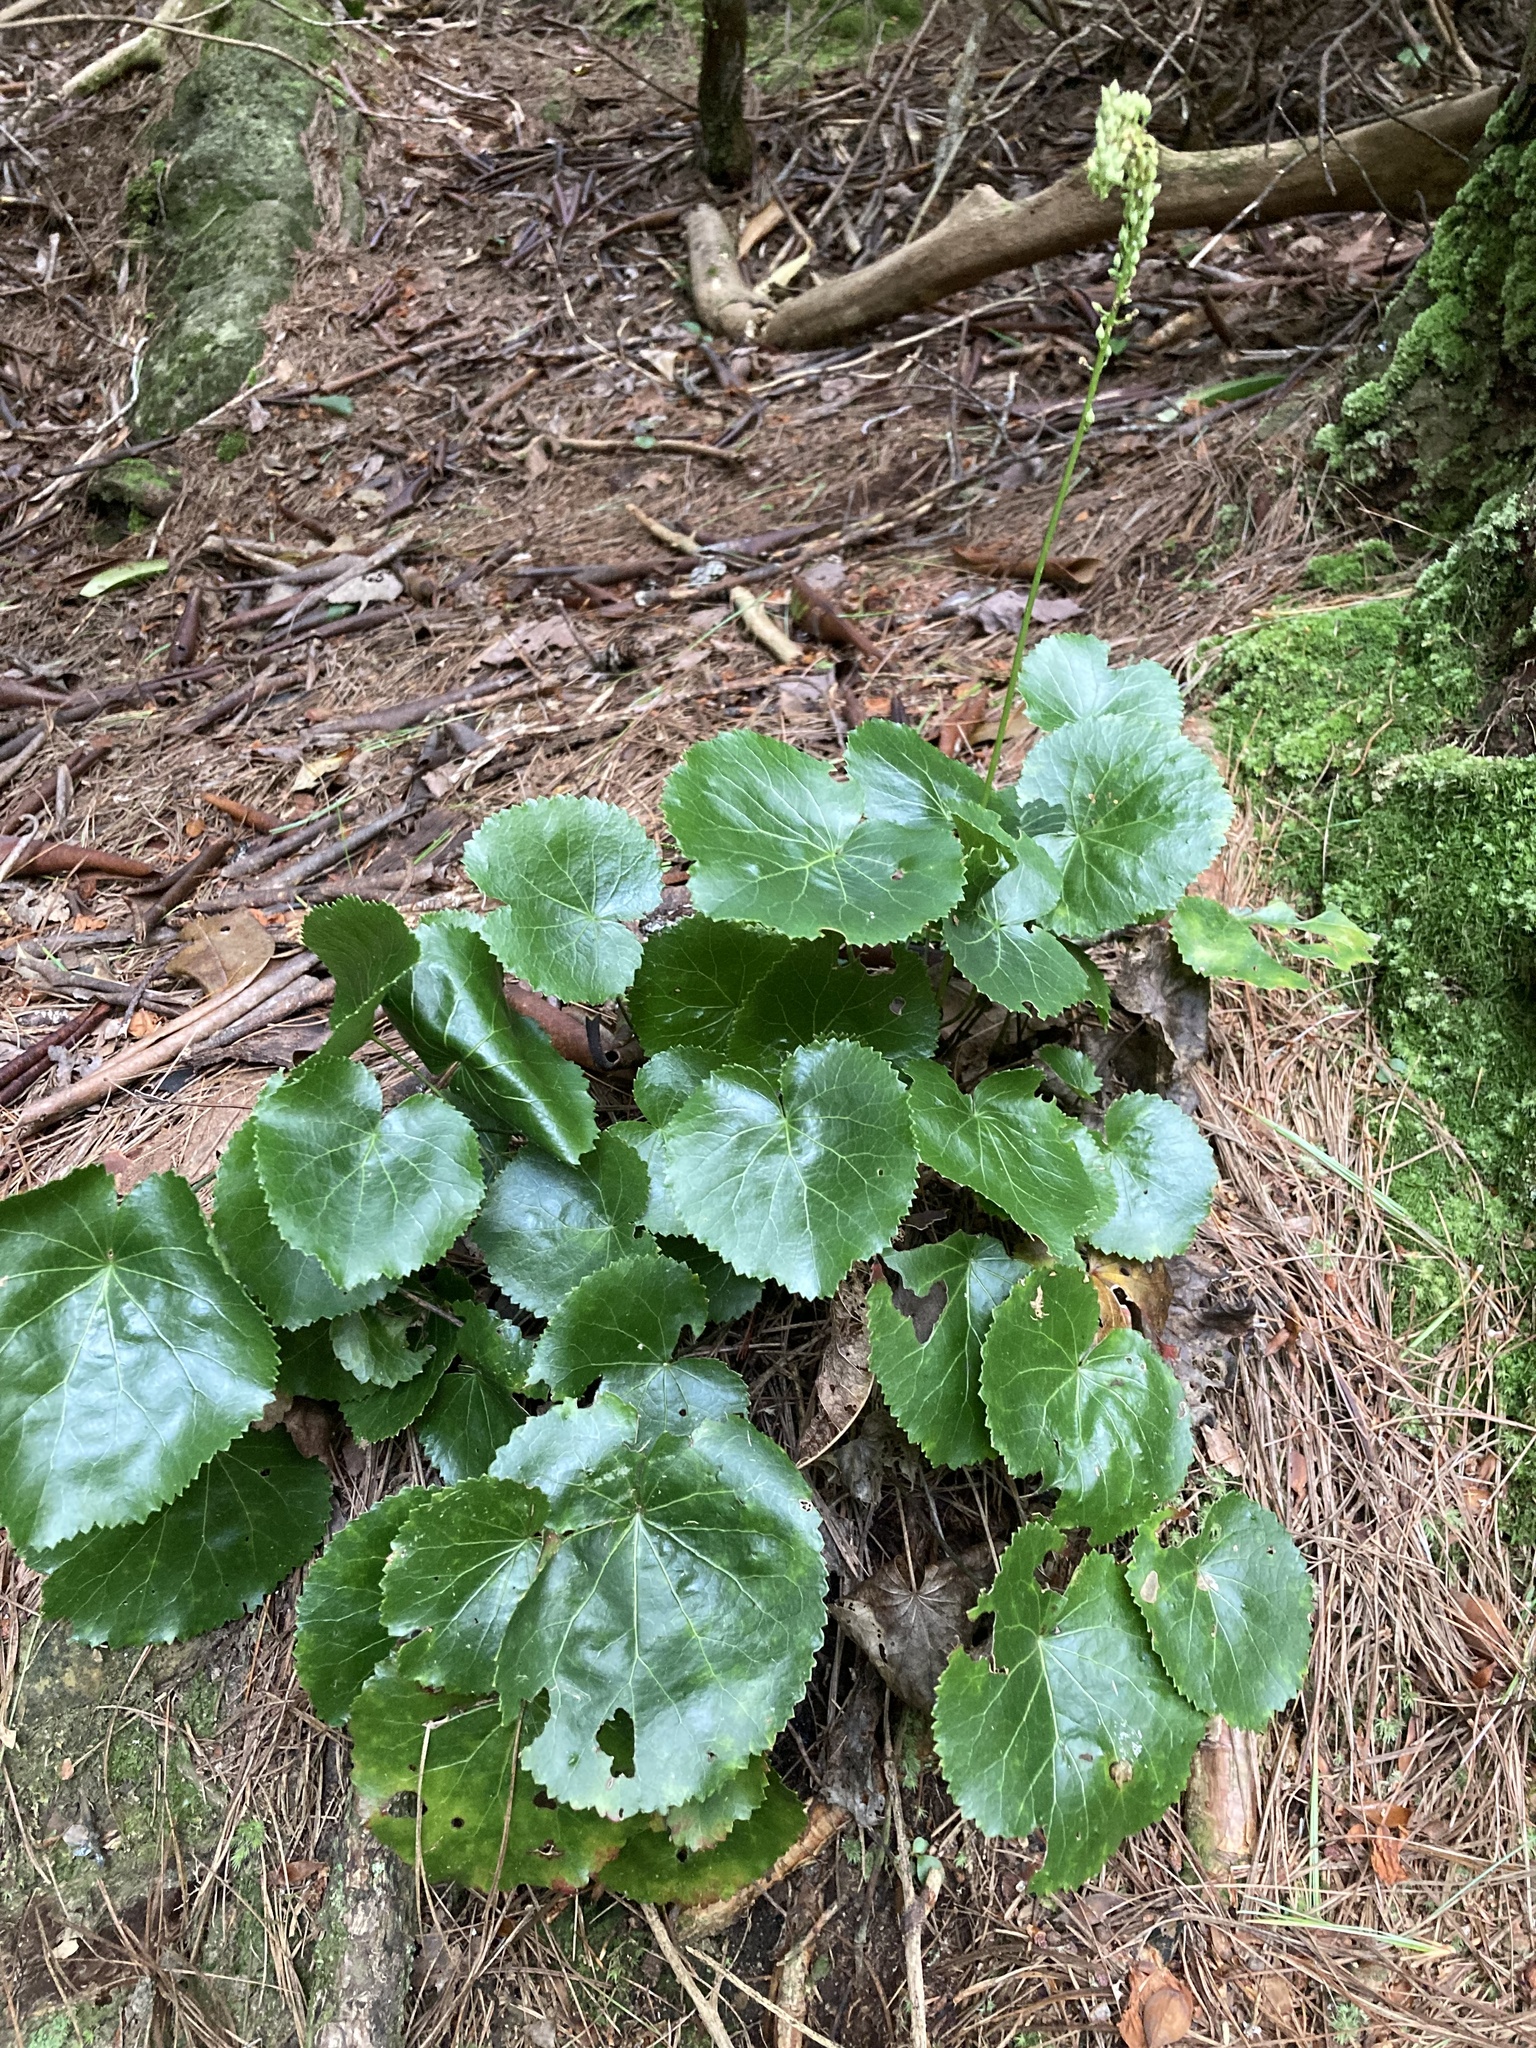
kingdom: Plantae
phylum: Tracheophyta
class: Magnoliopsida
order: Ericales
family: Diapensiaceae
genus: Galax
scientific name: Galax urceolata
